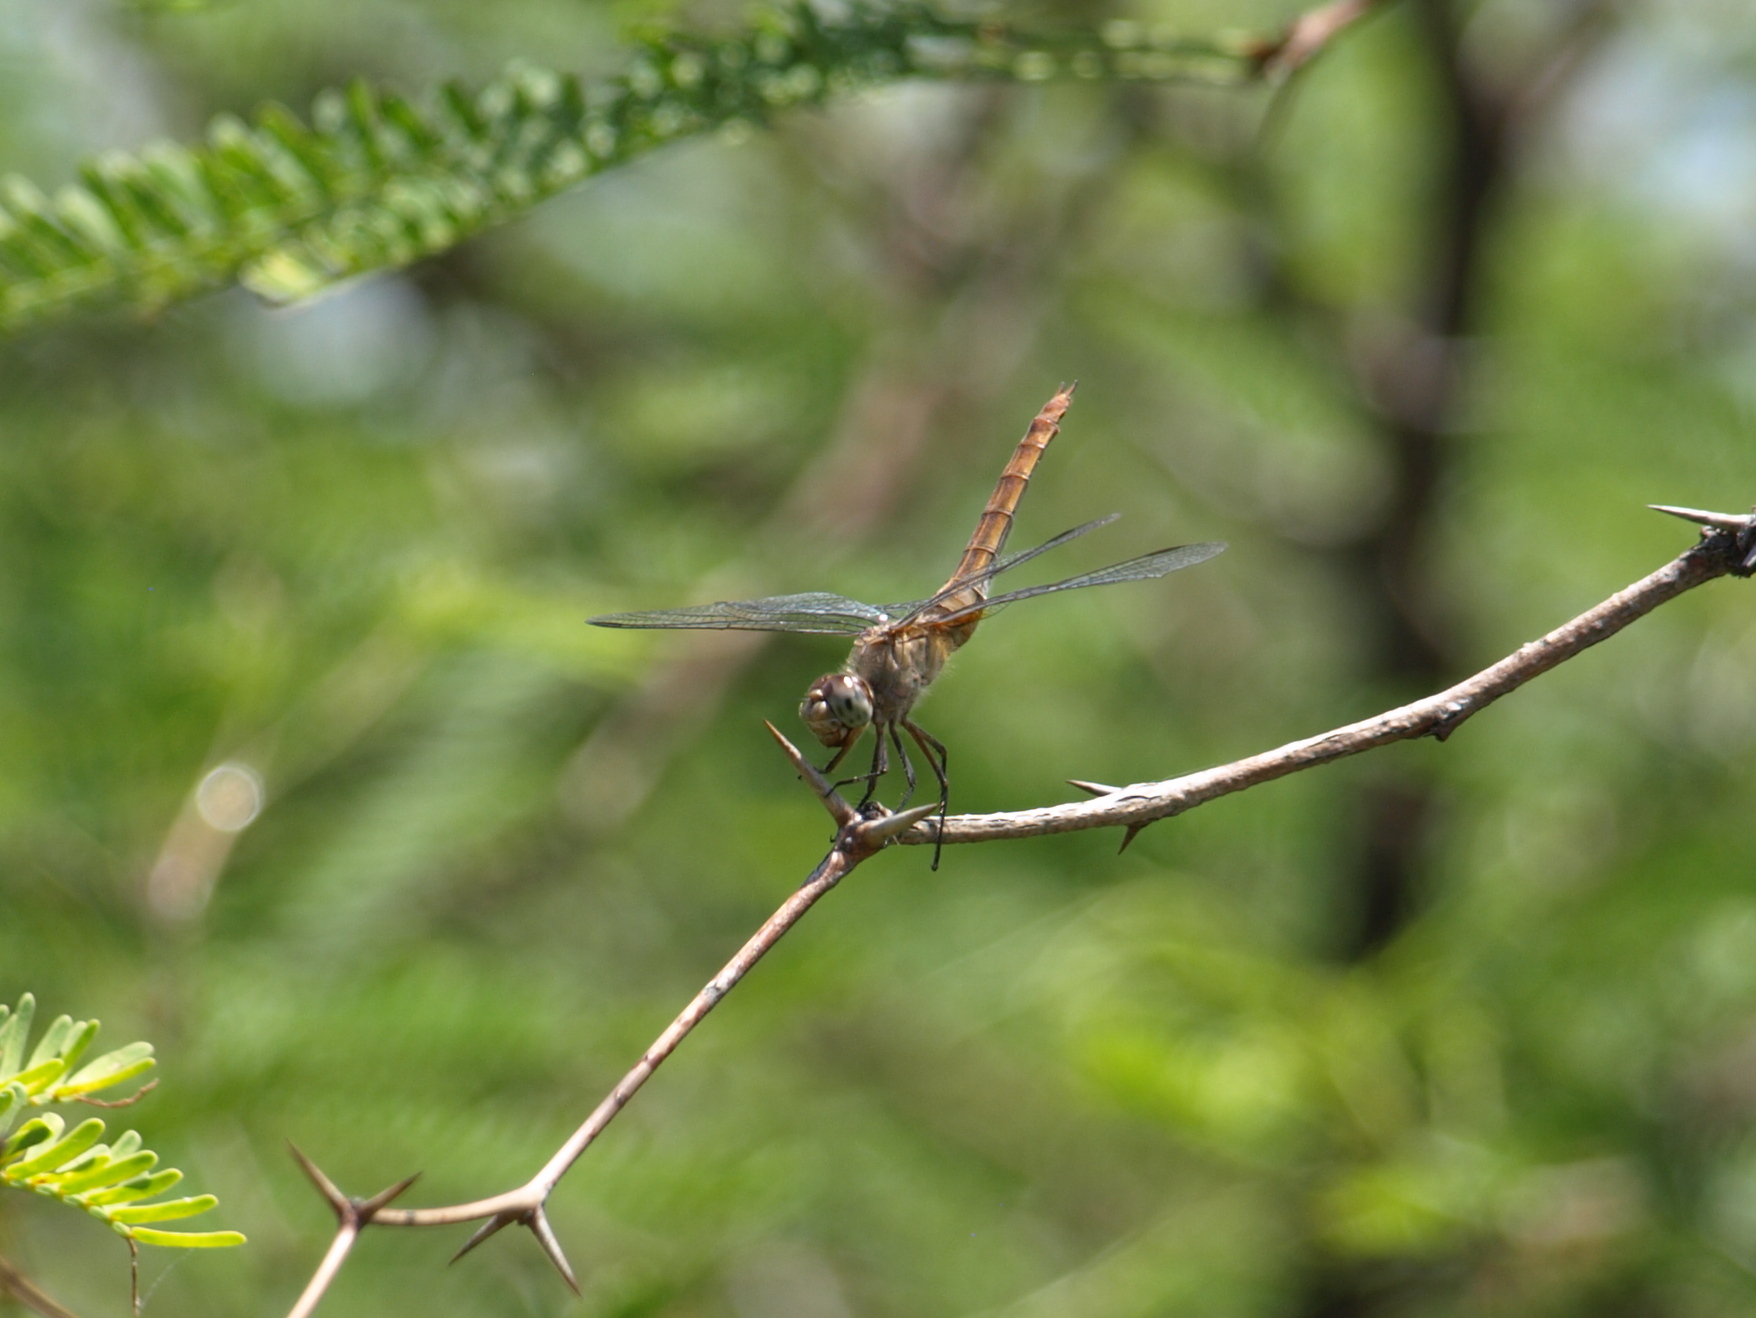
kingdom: Animalia
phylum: Arthropoda
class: Insecta
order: Odonata
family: Libellulidae
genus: Brachymesia
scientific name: Brachymesia furcata
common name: Red-taled pennant
